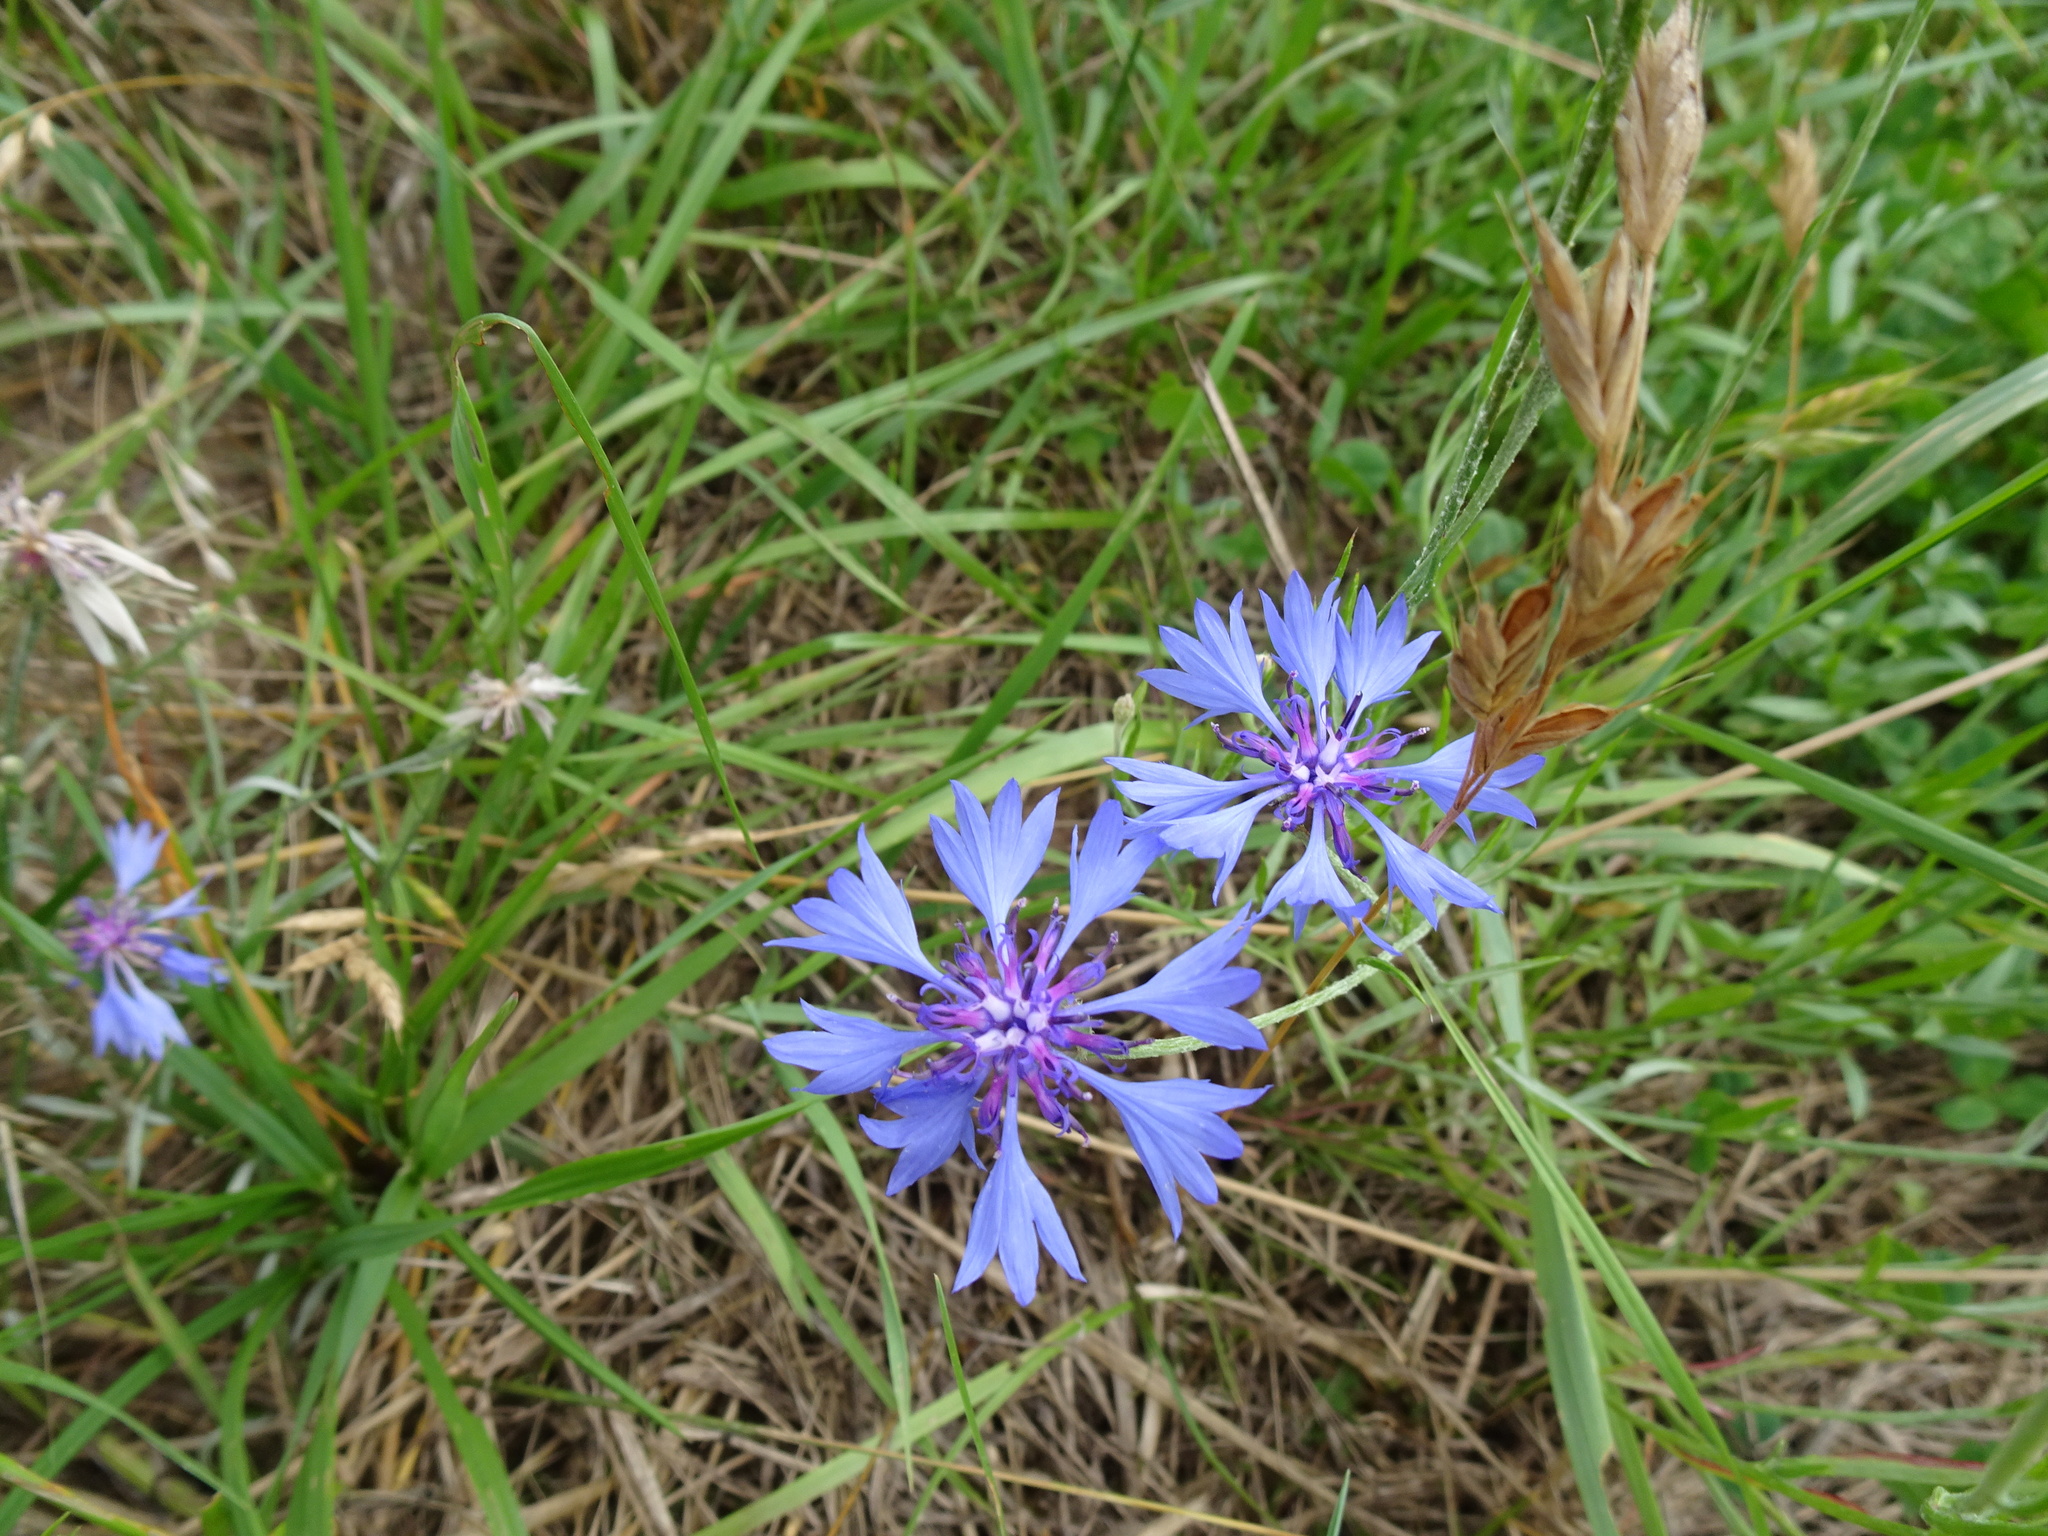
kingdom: Plantae
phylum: Tracheophyta
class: Magnoliopsida
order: Asterales
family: Asteraceae
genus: Centaurea
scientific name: Centaurea cyanus
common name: Cornflower
